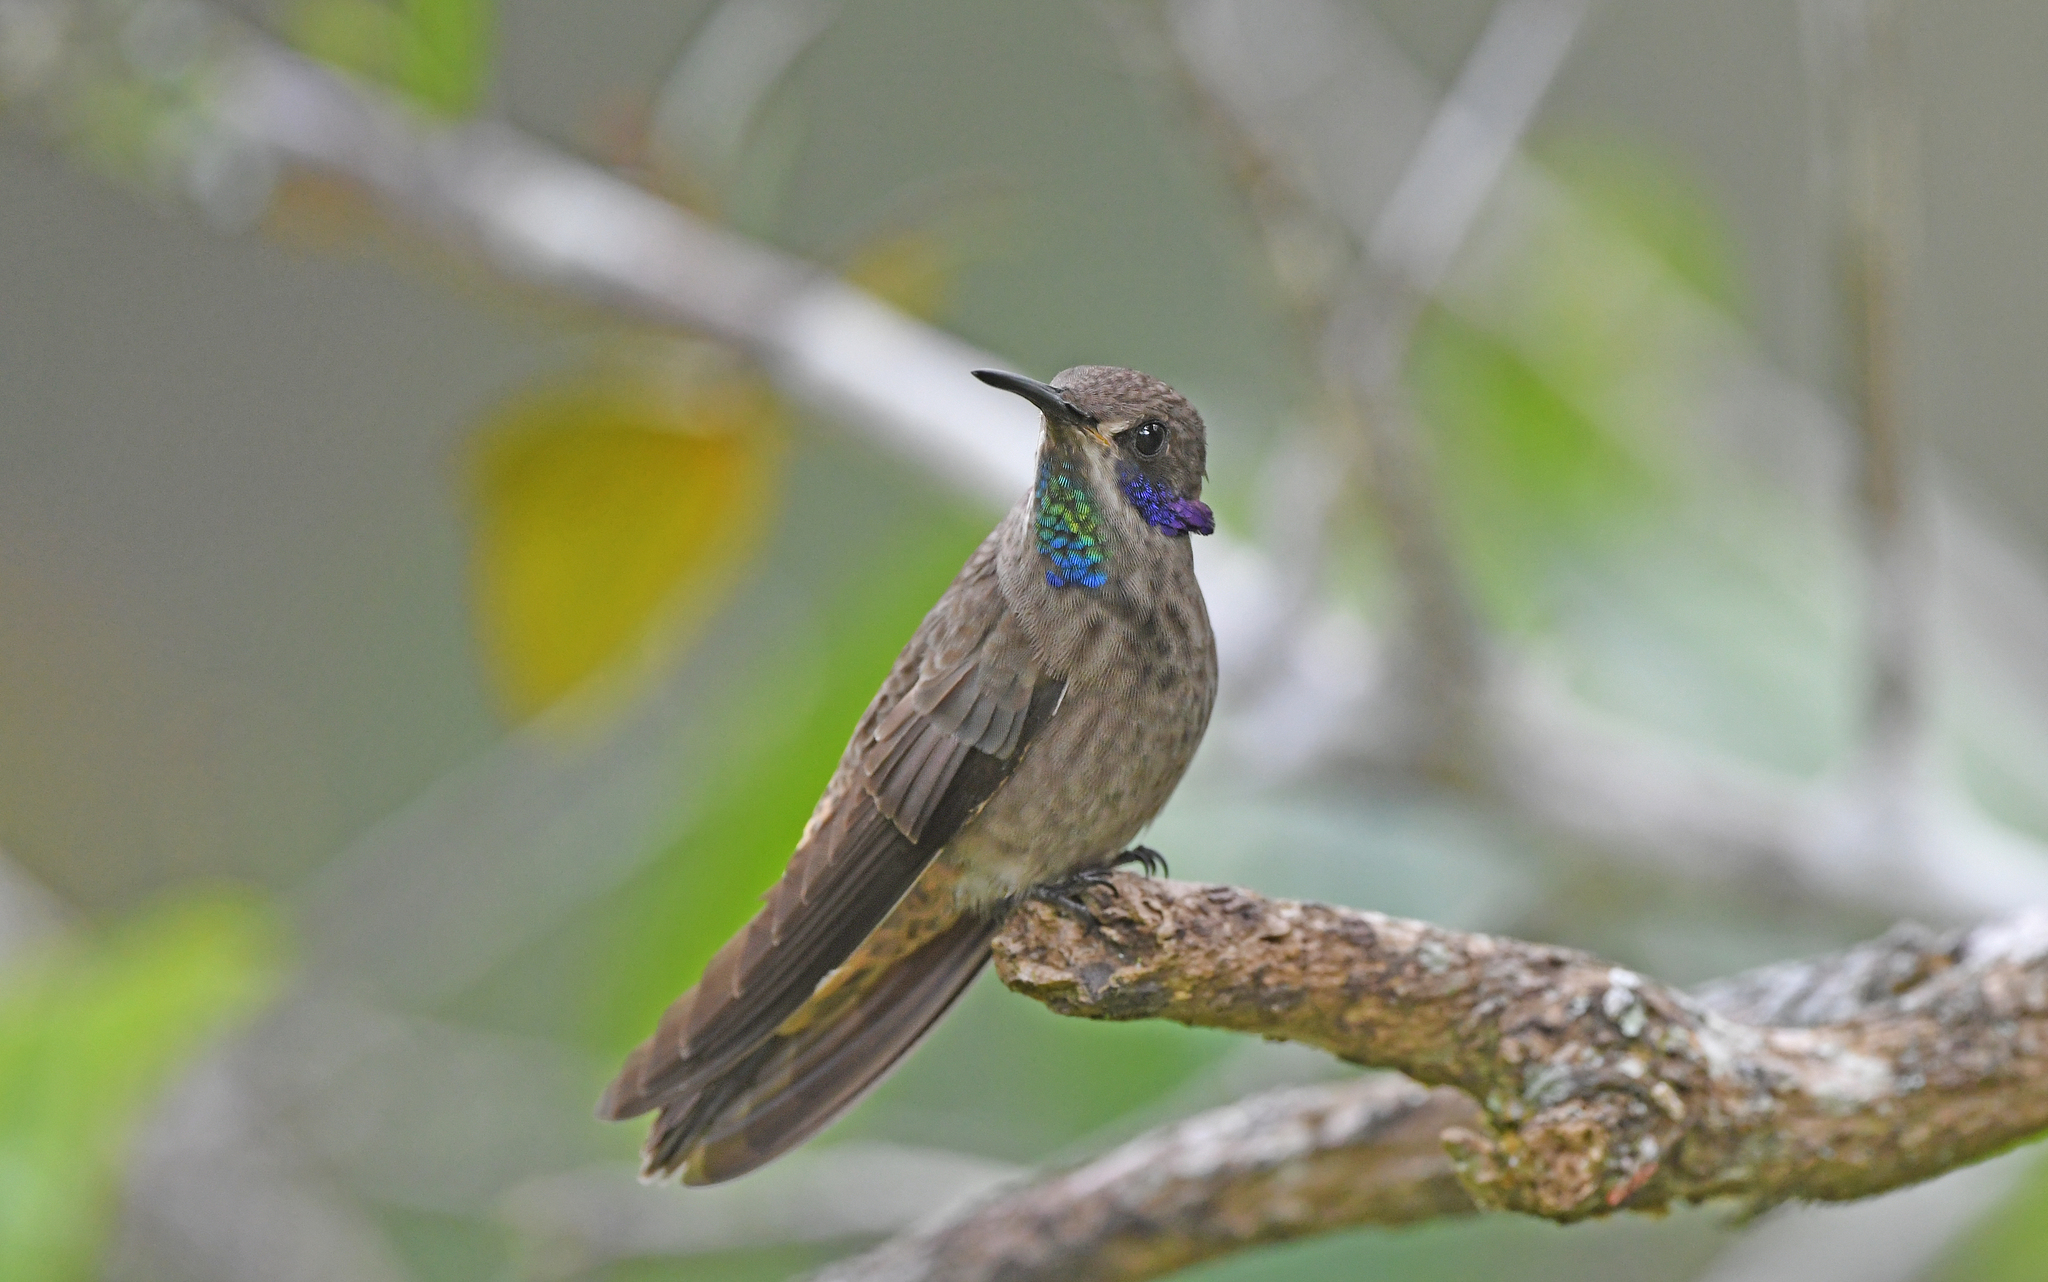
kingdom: Animalia
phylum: Chordata
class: Aves
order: Apodiformes
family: Trochilidae
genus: Colibri
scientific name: Colibri delphinae
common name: Brown violetear
